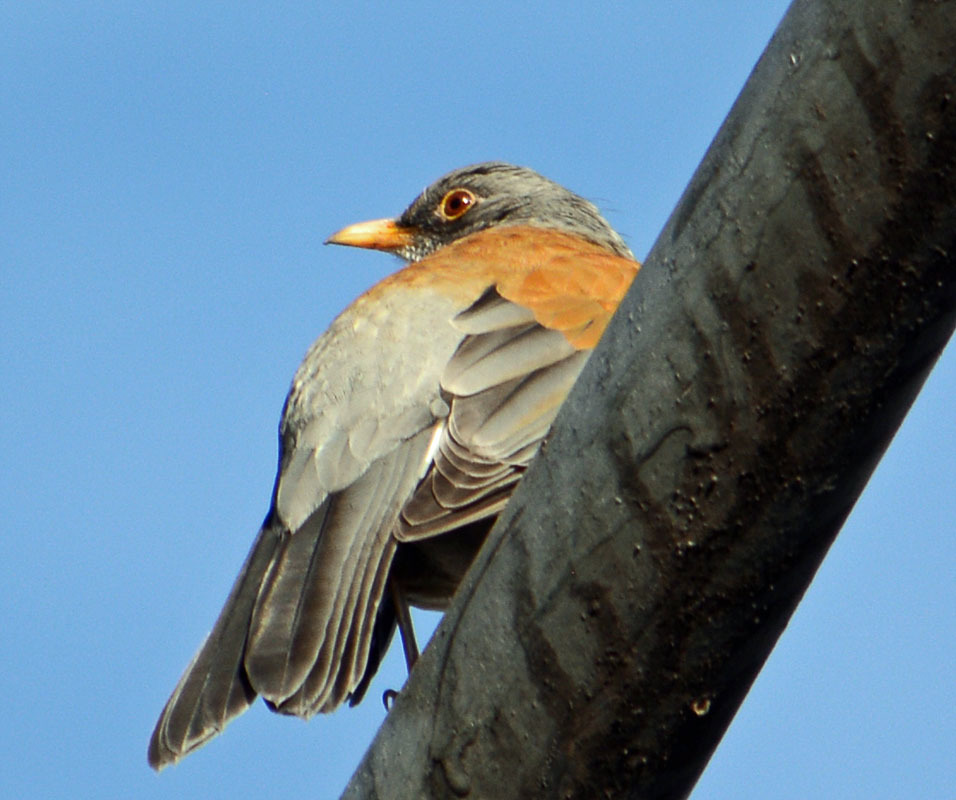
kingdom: Animalia
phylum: Chordata
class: Aves
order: Passeriformes
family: Turdidae
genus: Turdus
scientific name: Turdus rufopalliatus
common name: Rufous-backed robin
